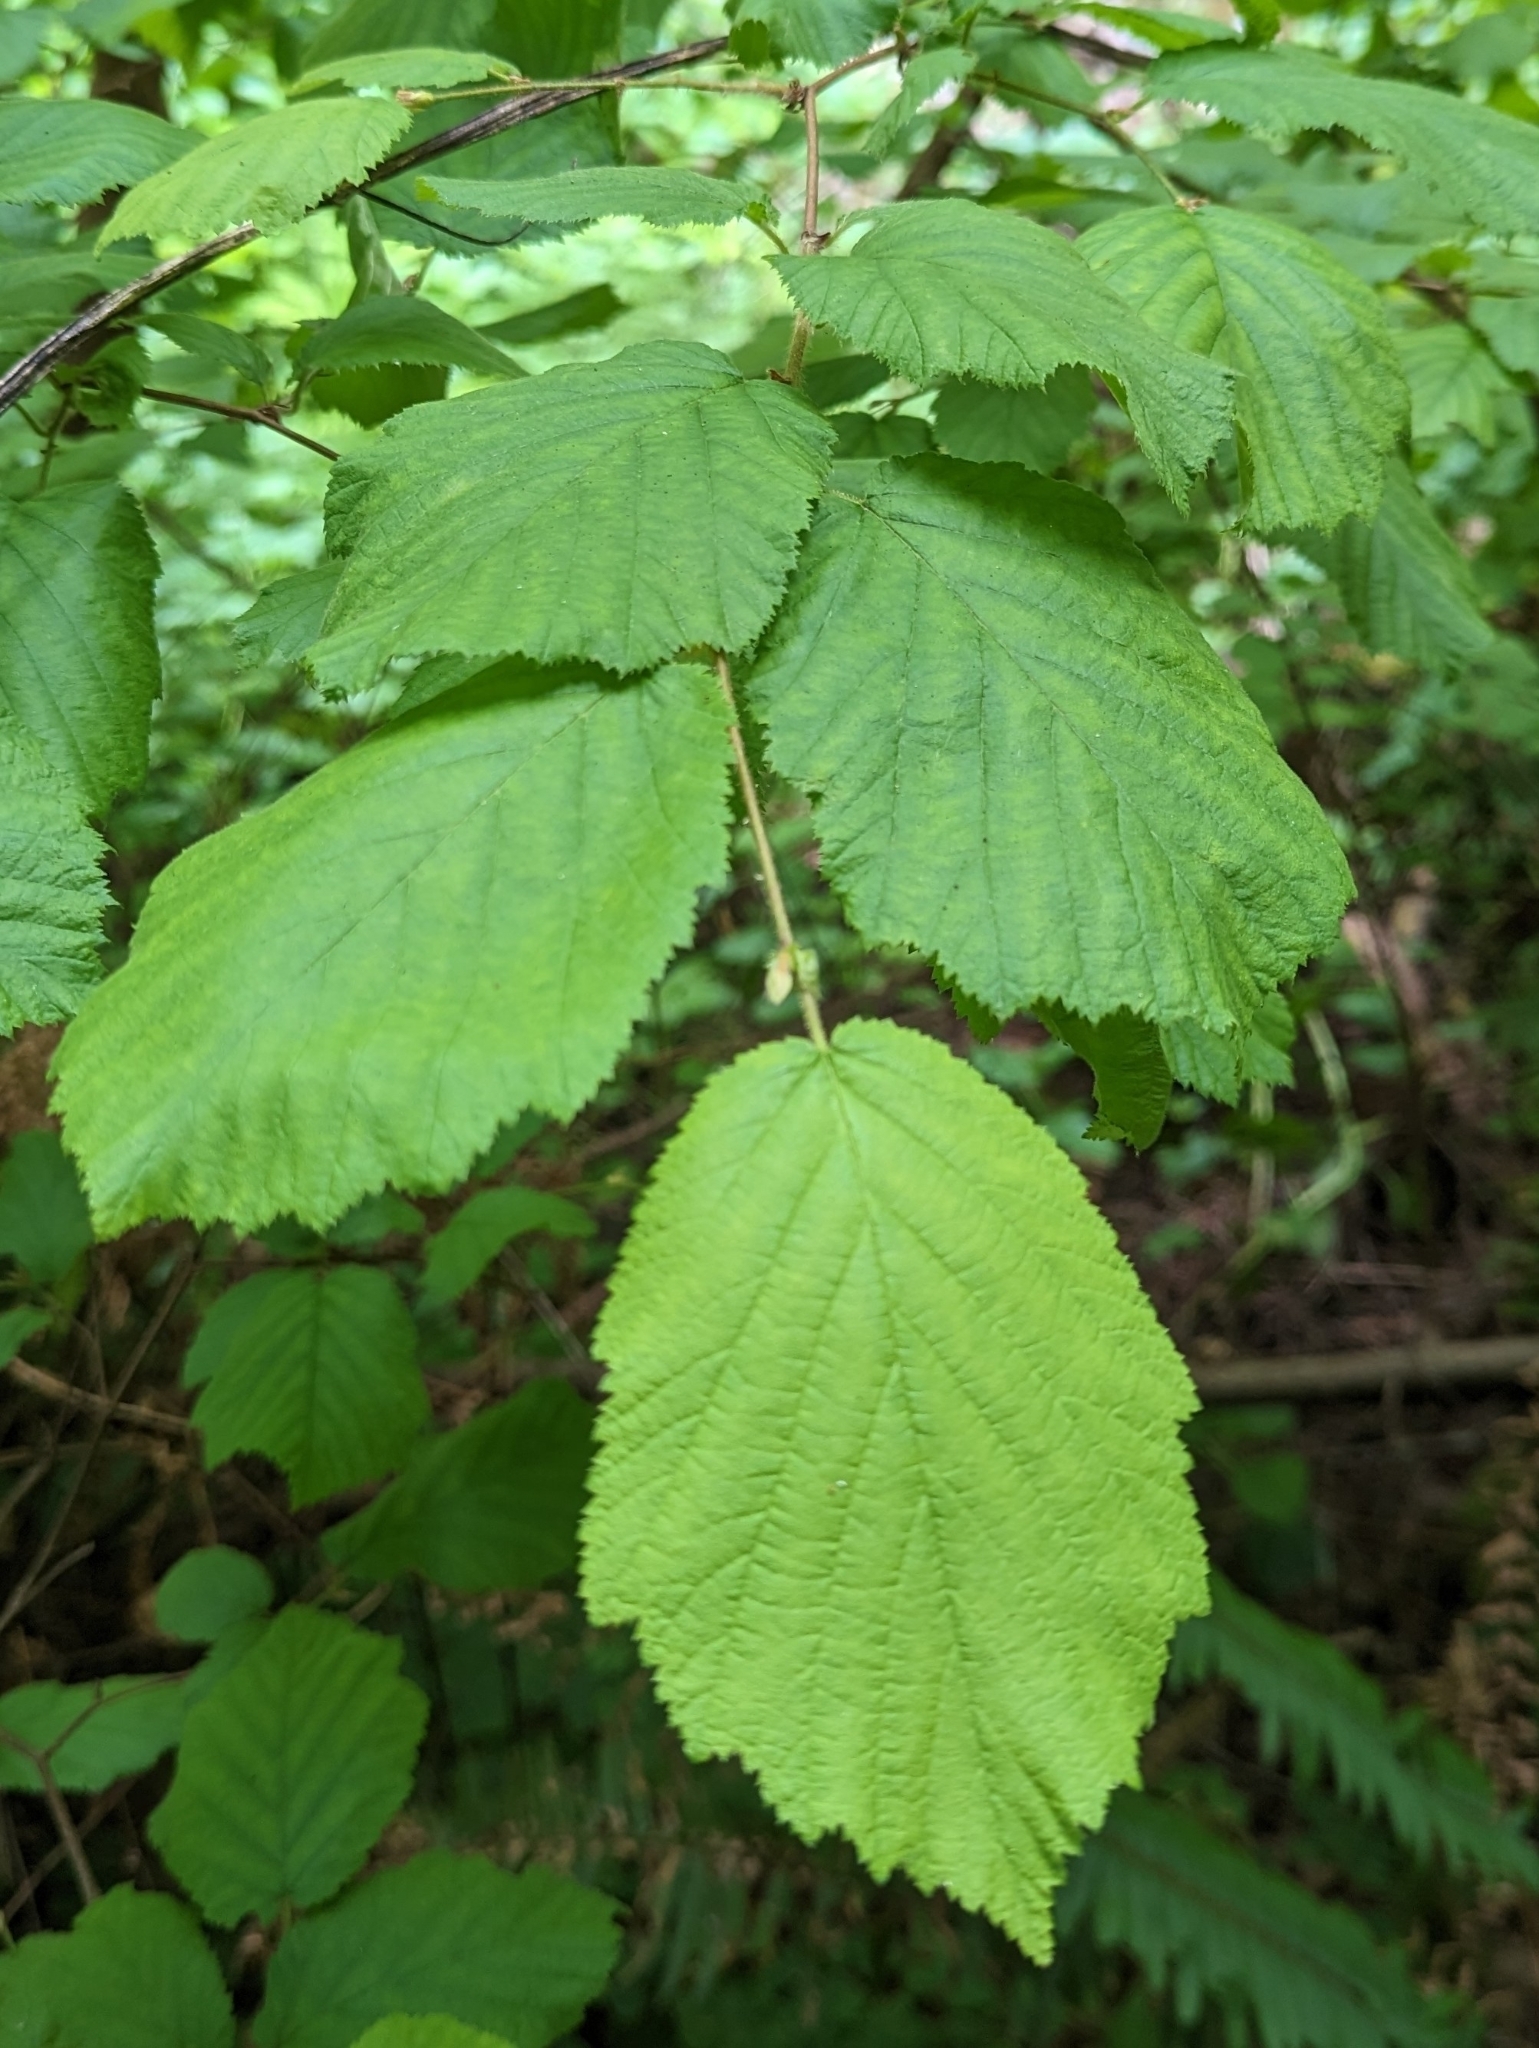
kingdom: Plantae
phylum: Tracheophyta
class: Magnoliopsida
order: Fagales
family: Betulaceae
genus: Corylus
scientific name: Corylus cornuta
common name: Beaked hazel
